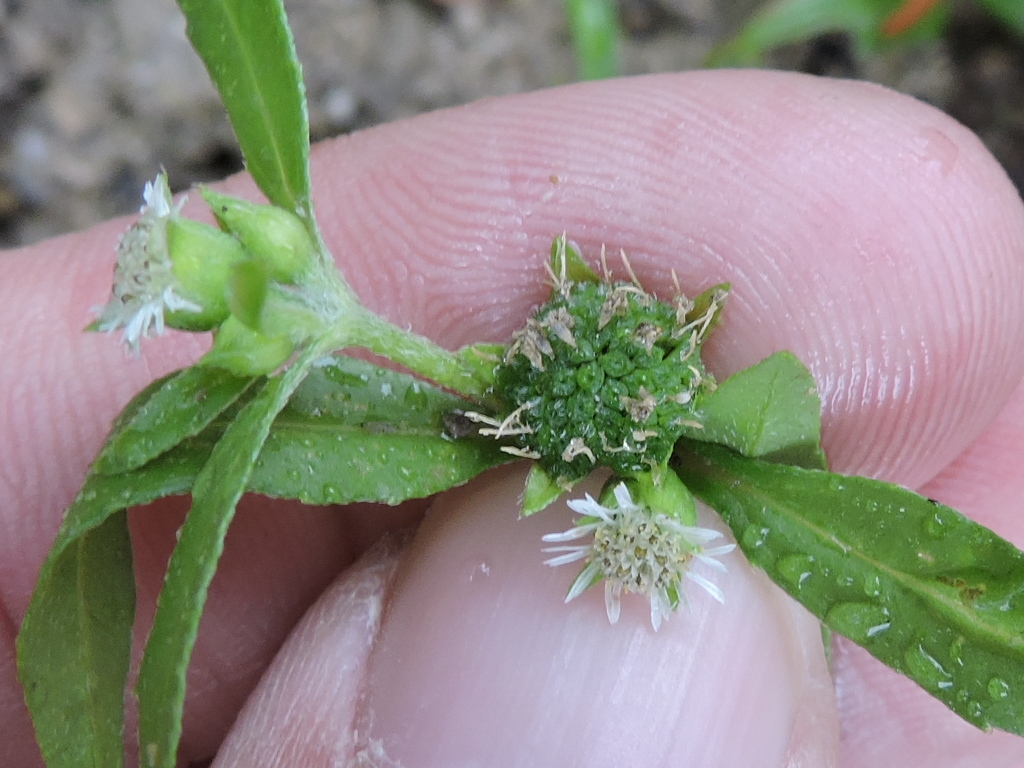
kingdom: Plantae
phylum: Tracheophyta
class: Magnoliopsida
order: Asterales
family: Asteraceae
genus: Eclipta
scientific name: Eclipta prostrata
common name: False daisy
